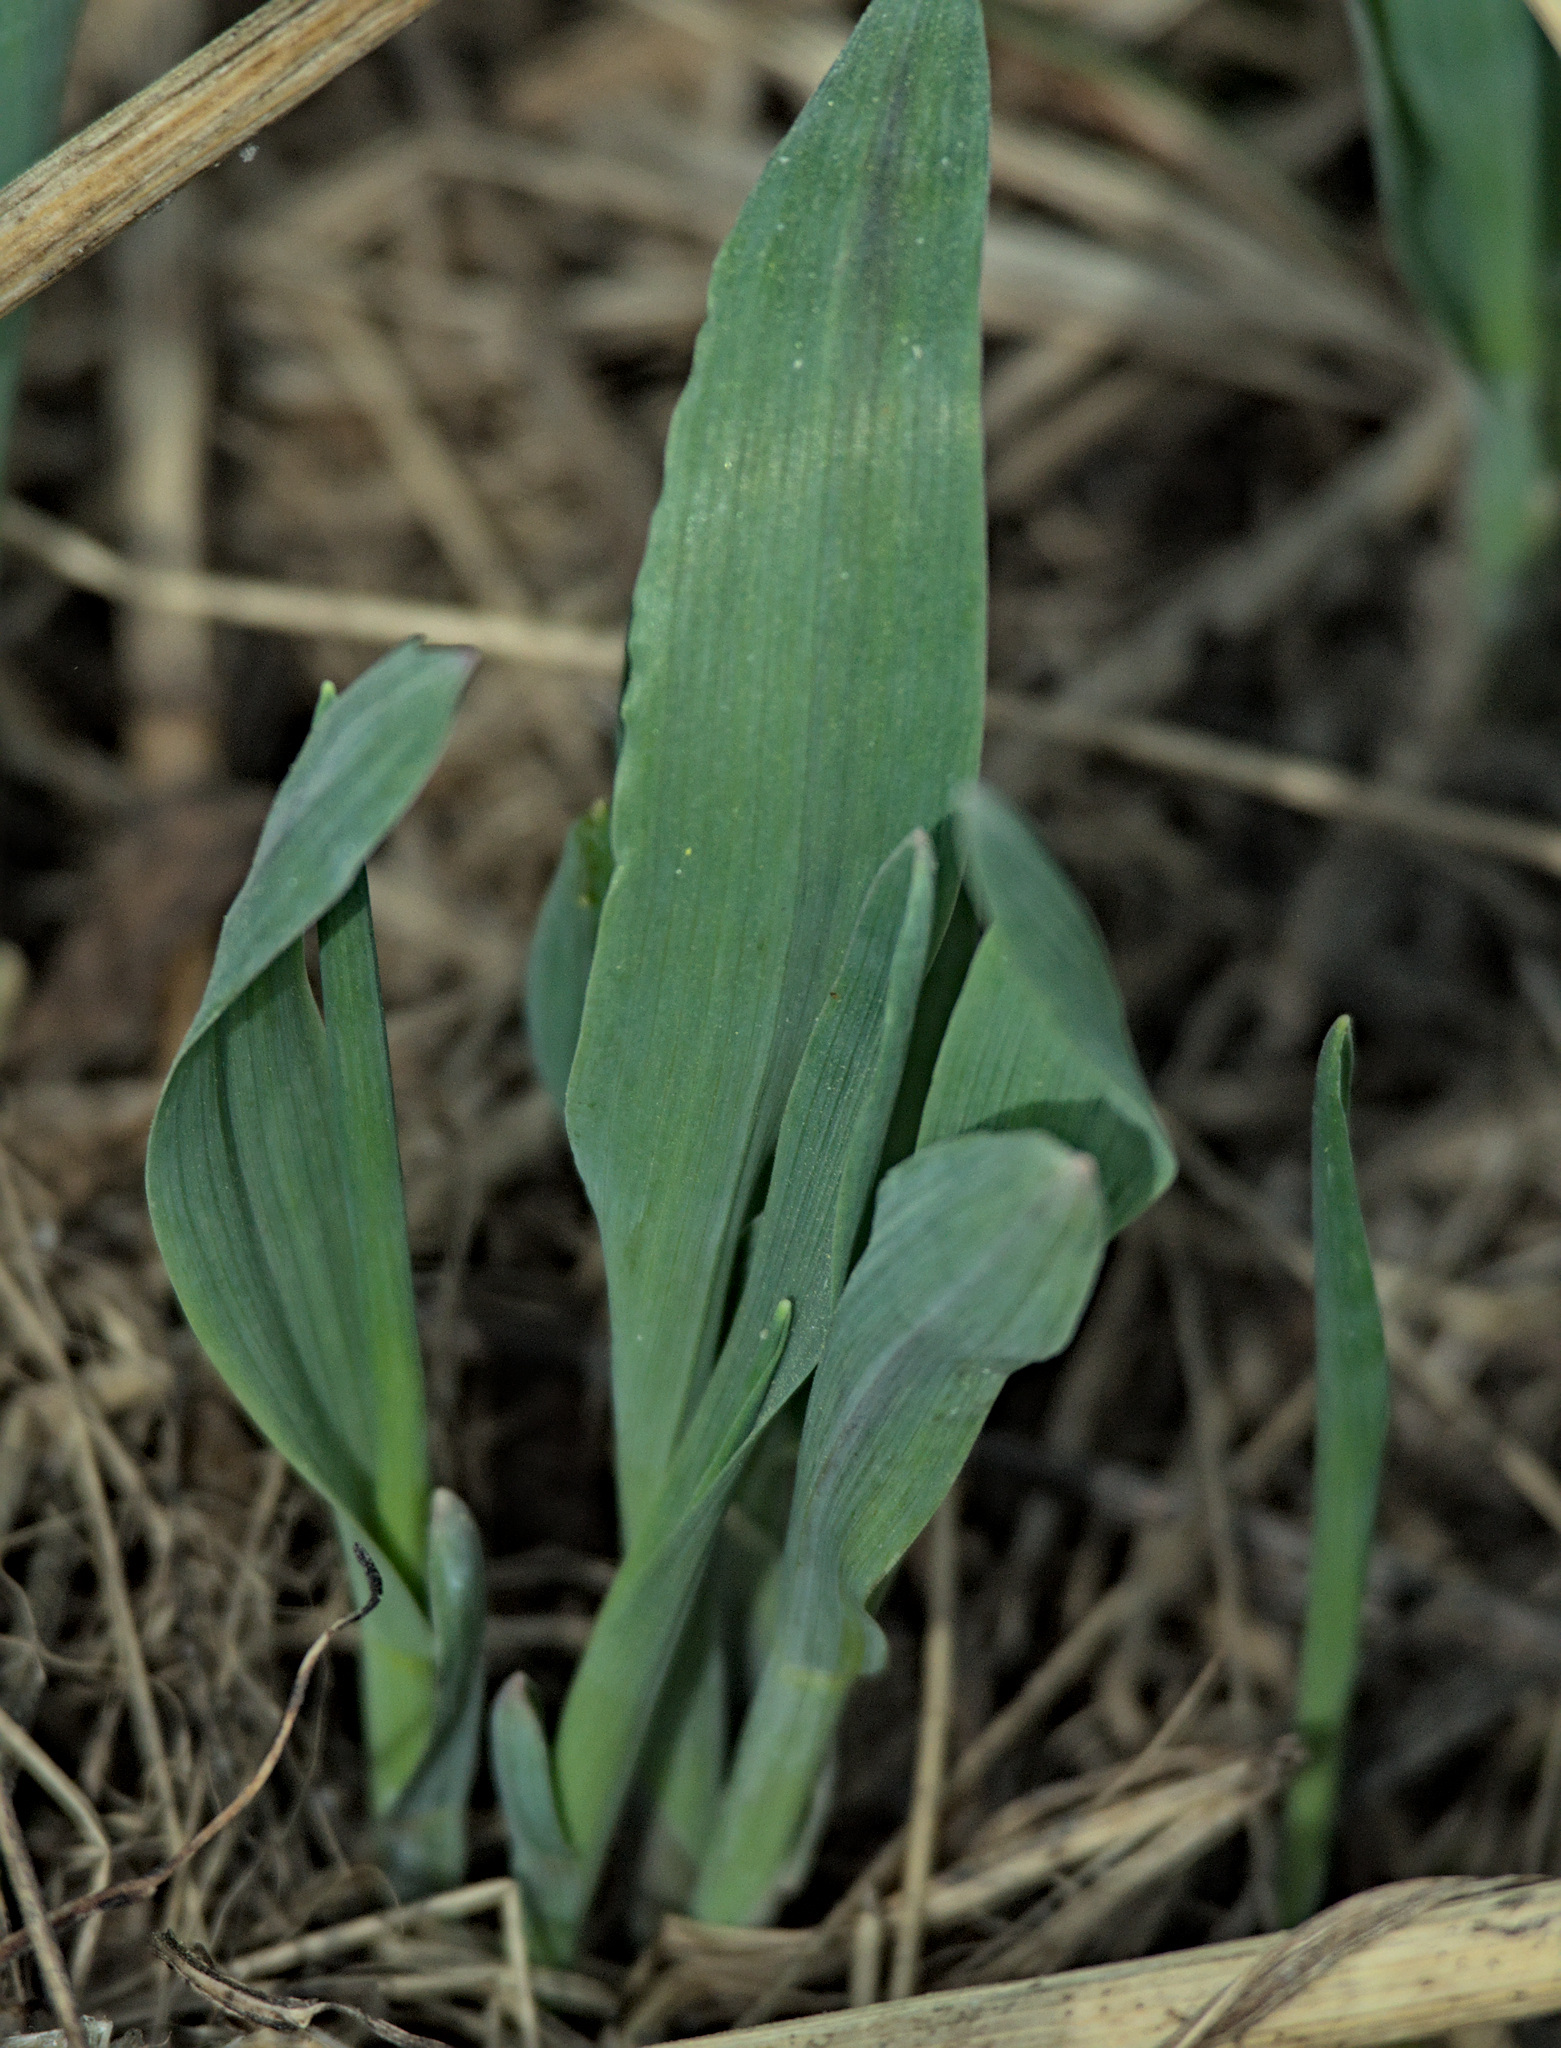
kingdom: Plantae
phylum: Tracheophyta
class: Liliopsida
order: Poales
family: Poaceae
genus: Milium
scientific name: Milium effusum
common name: Wood millet
